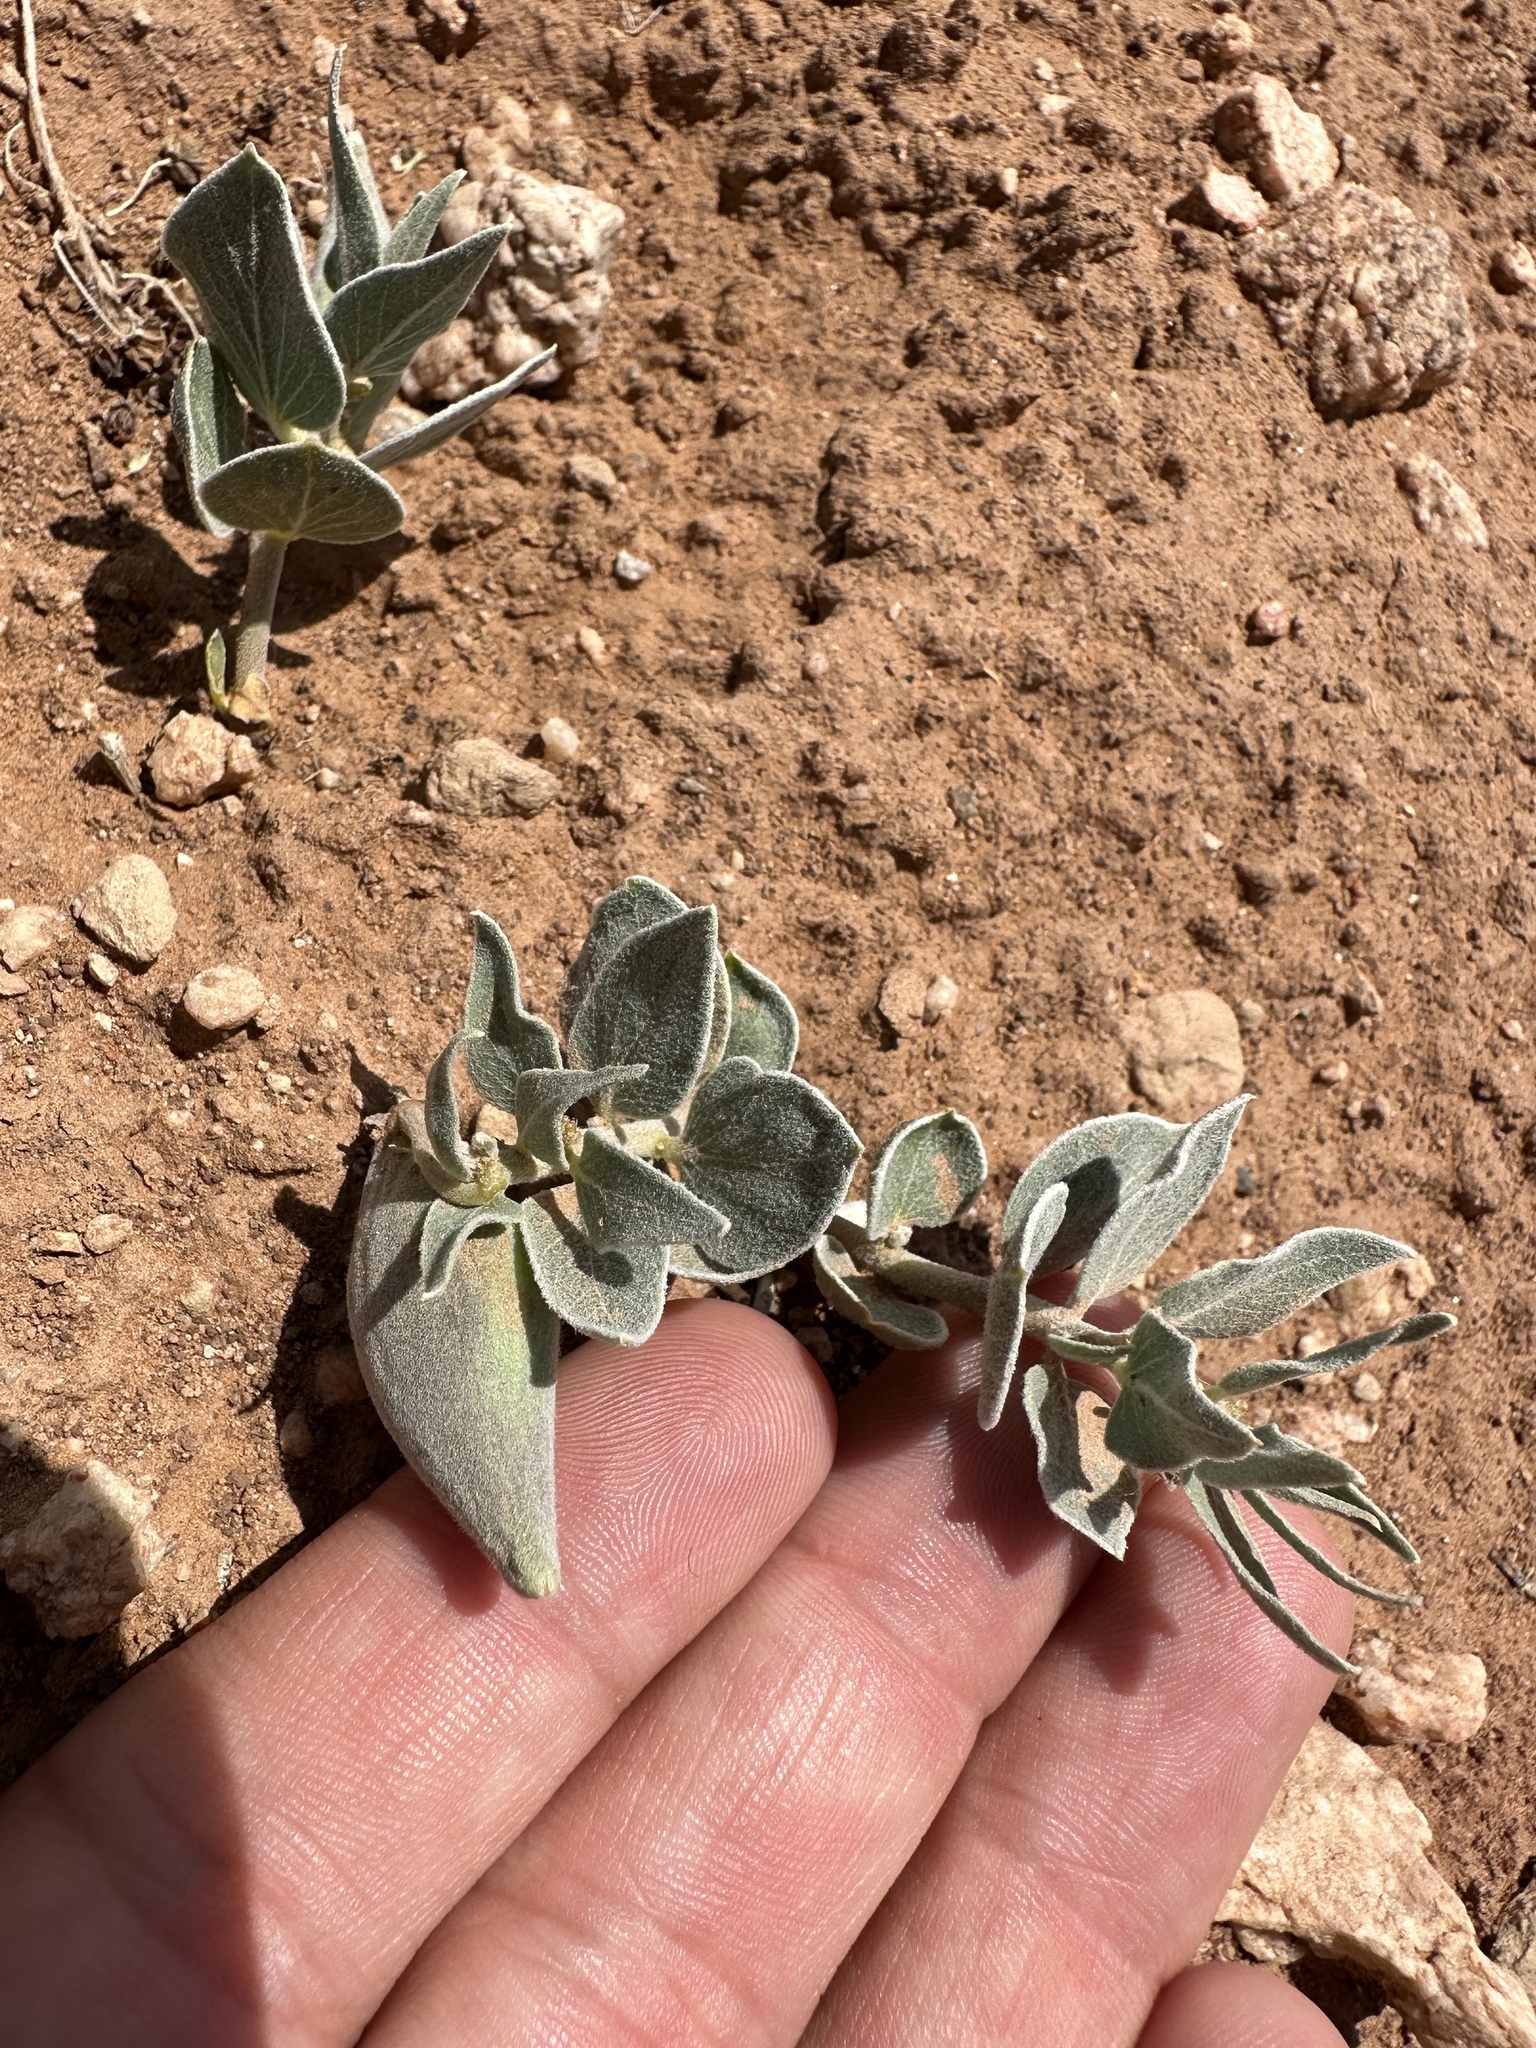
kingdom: Plantae
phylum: Tracheophyta
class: Magnoliopsida
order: Gentianales
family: Apocynaceae
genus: Asclepias
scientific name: Asclepias ruthiae
